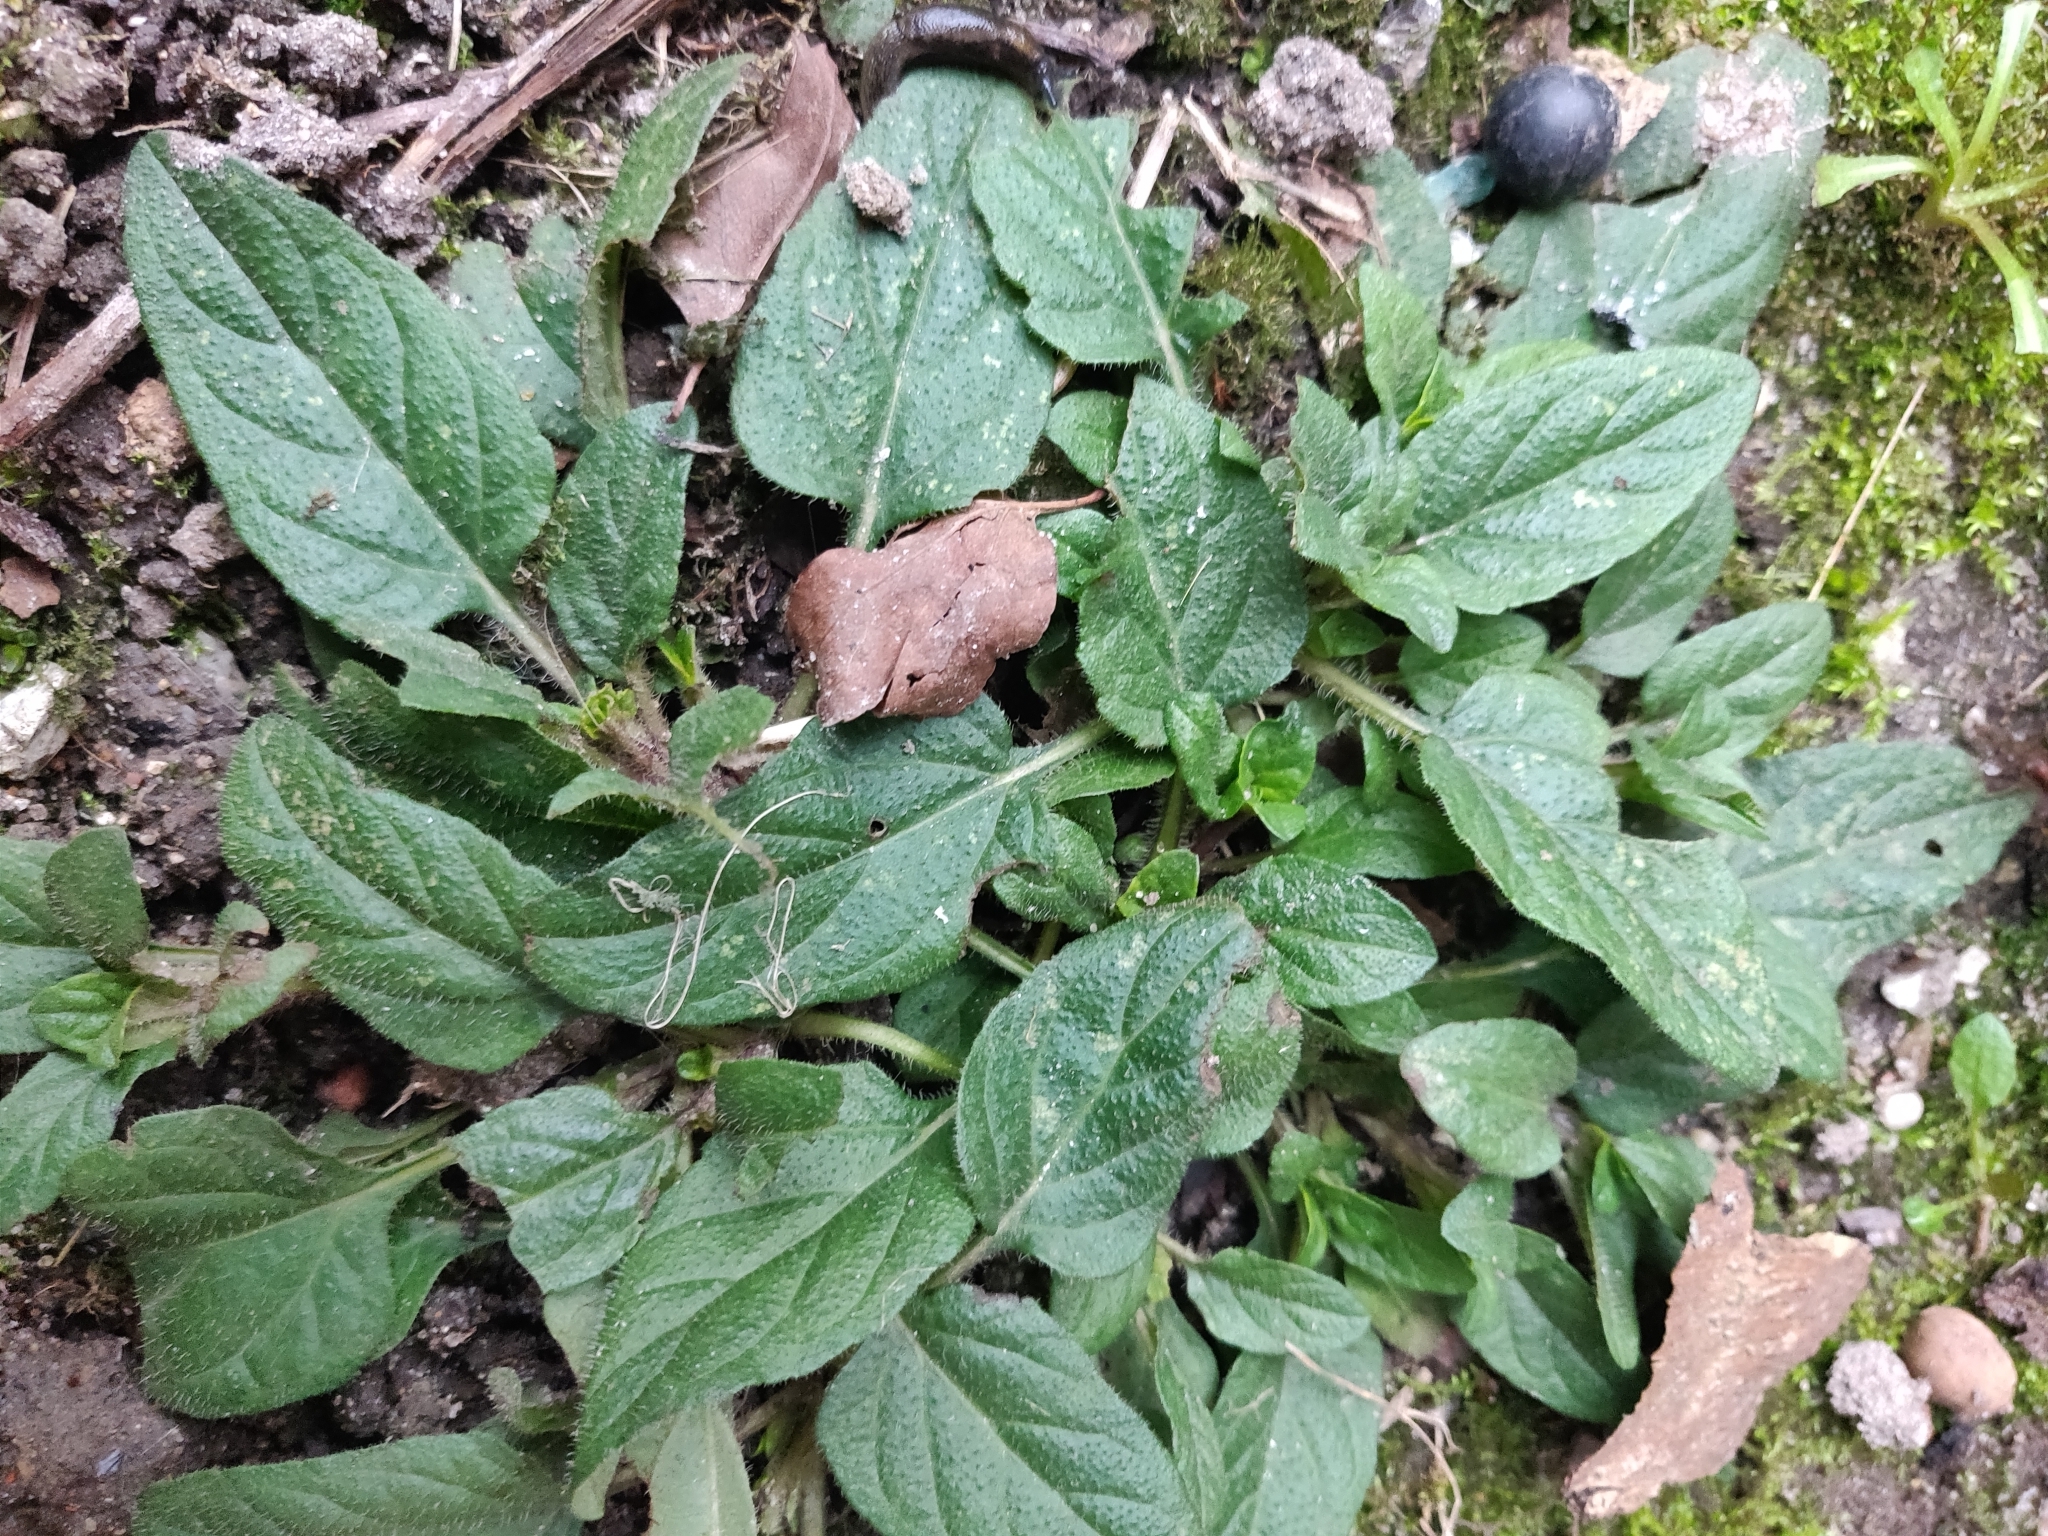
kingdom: Plantae
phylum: Tracheophyta
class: Magnoliopsida
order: Lamiales
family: Lamiaceae
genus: Prunella
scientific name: Prunella vulgaris
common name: Heal-all
